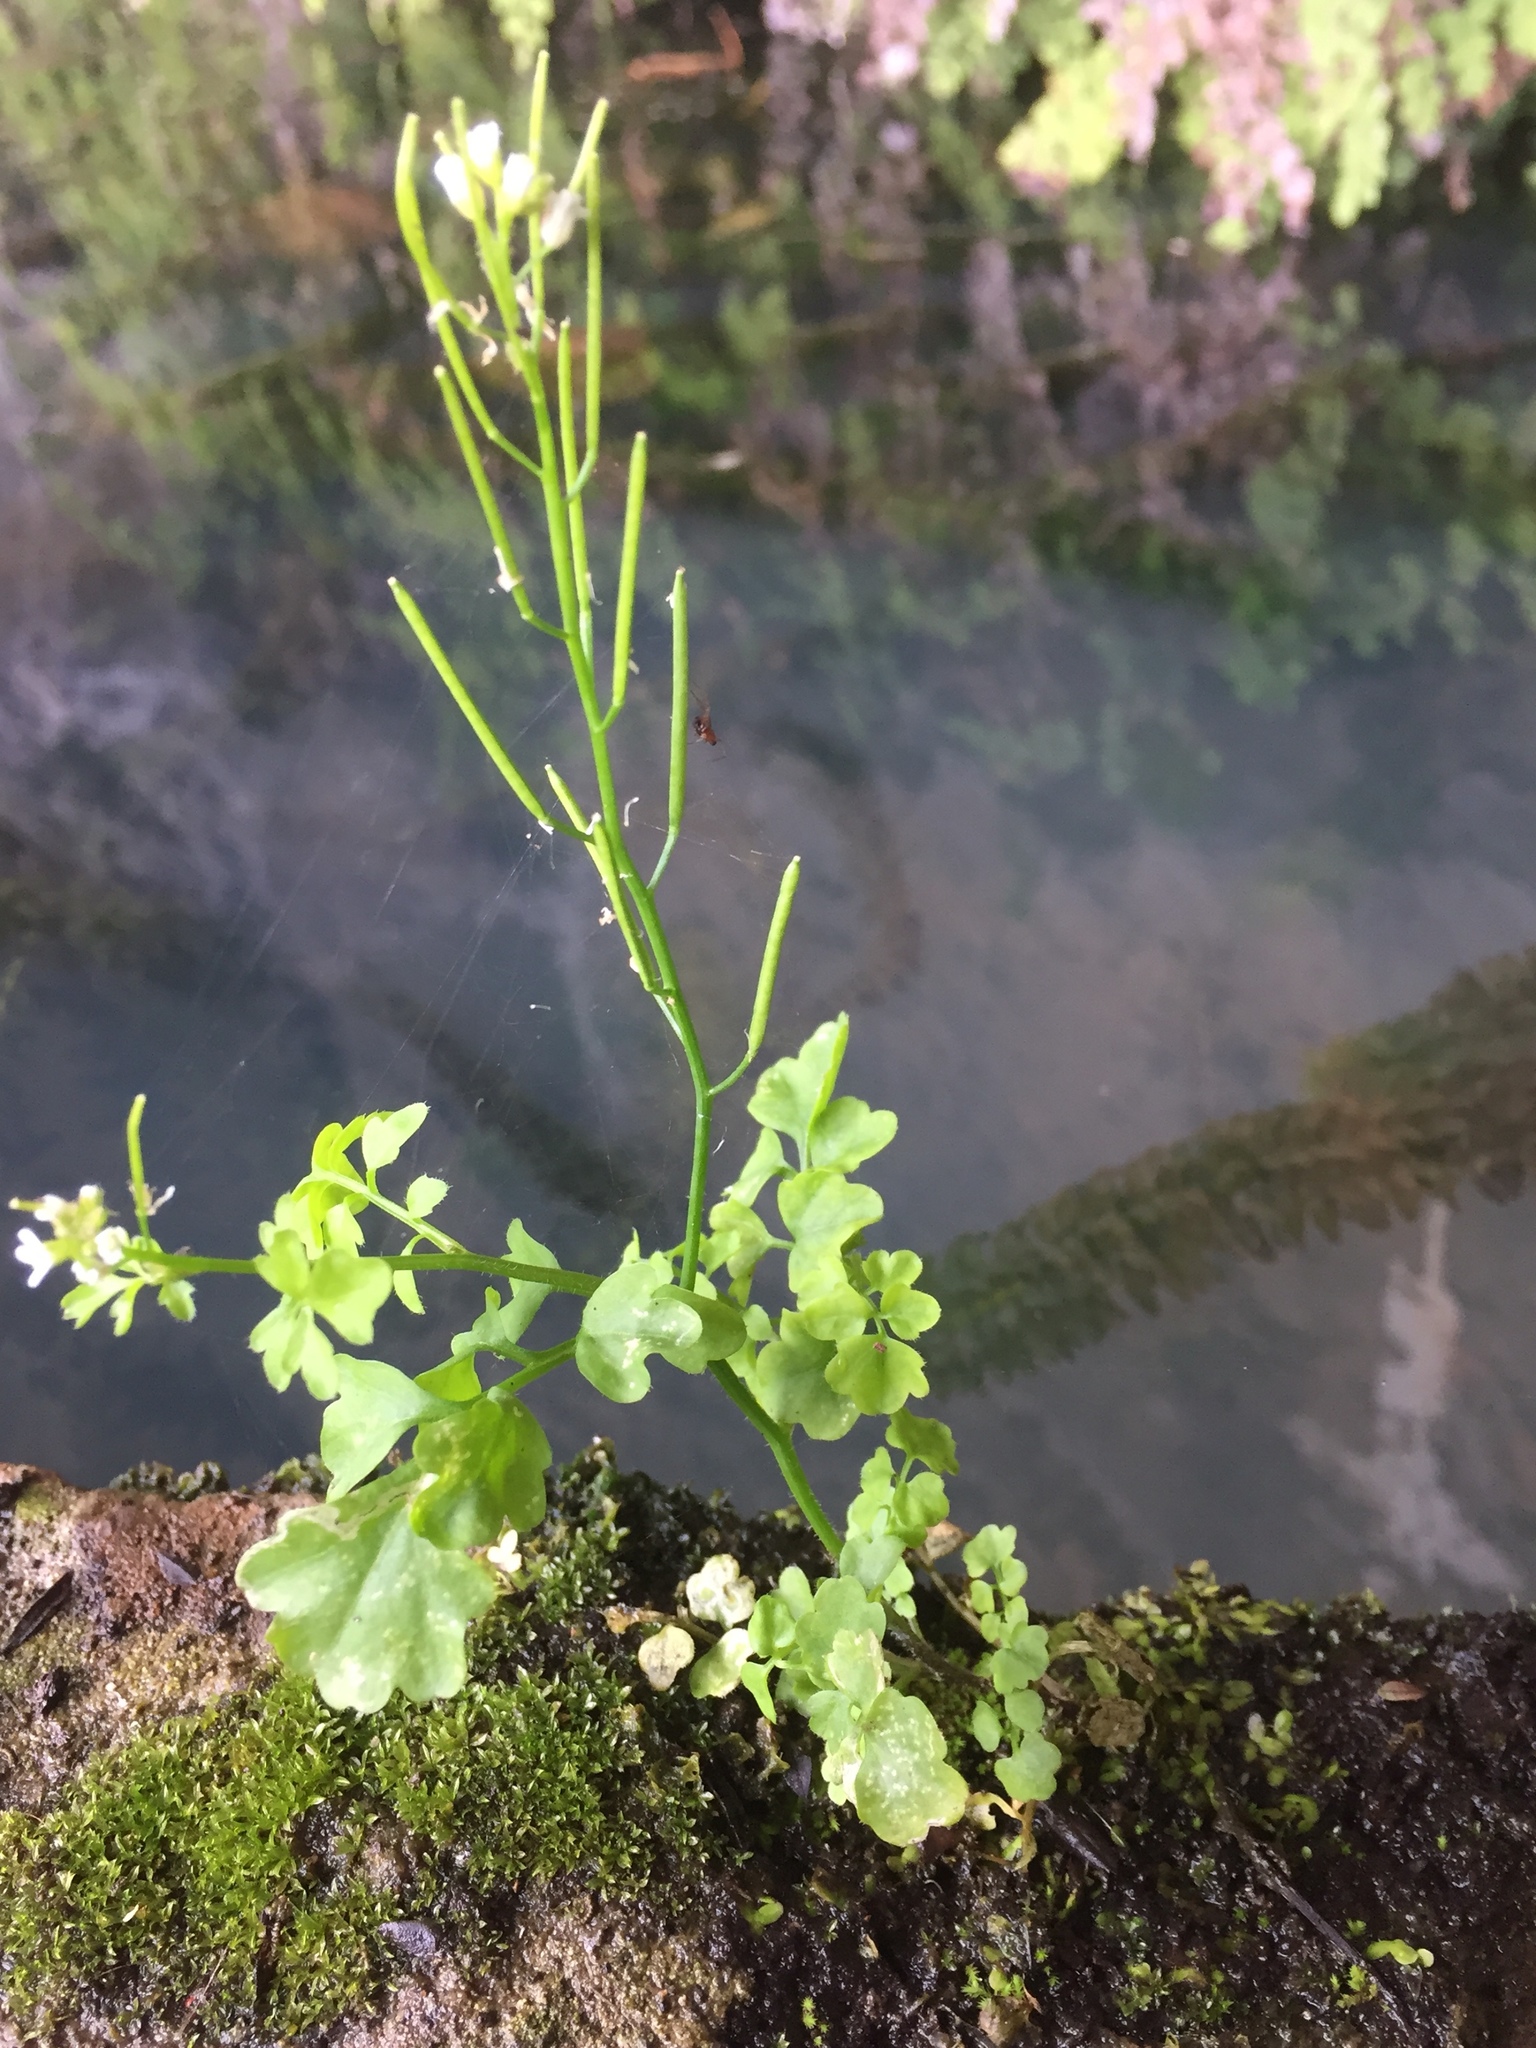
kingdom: Plantae
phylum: Tracheophyta
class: Magnoliopsida
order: Brassicales
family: Brassicaceae
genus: Cardamine
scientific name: Cardamine occulta
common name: Asian wavy bittercress
